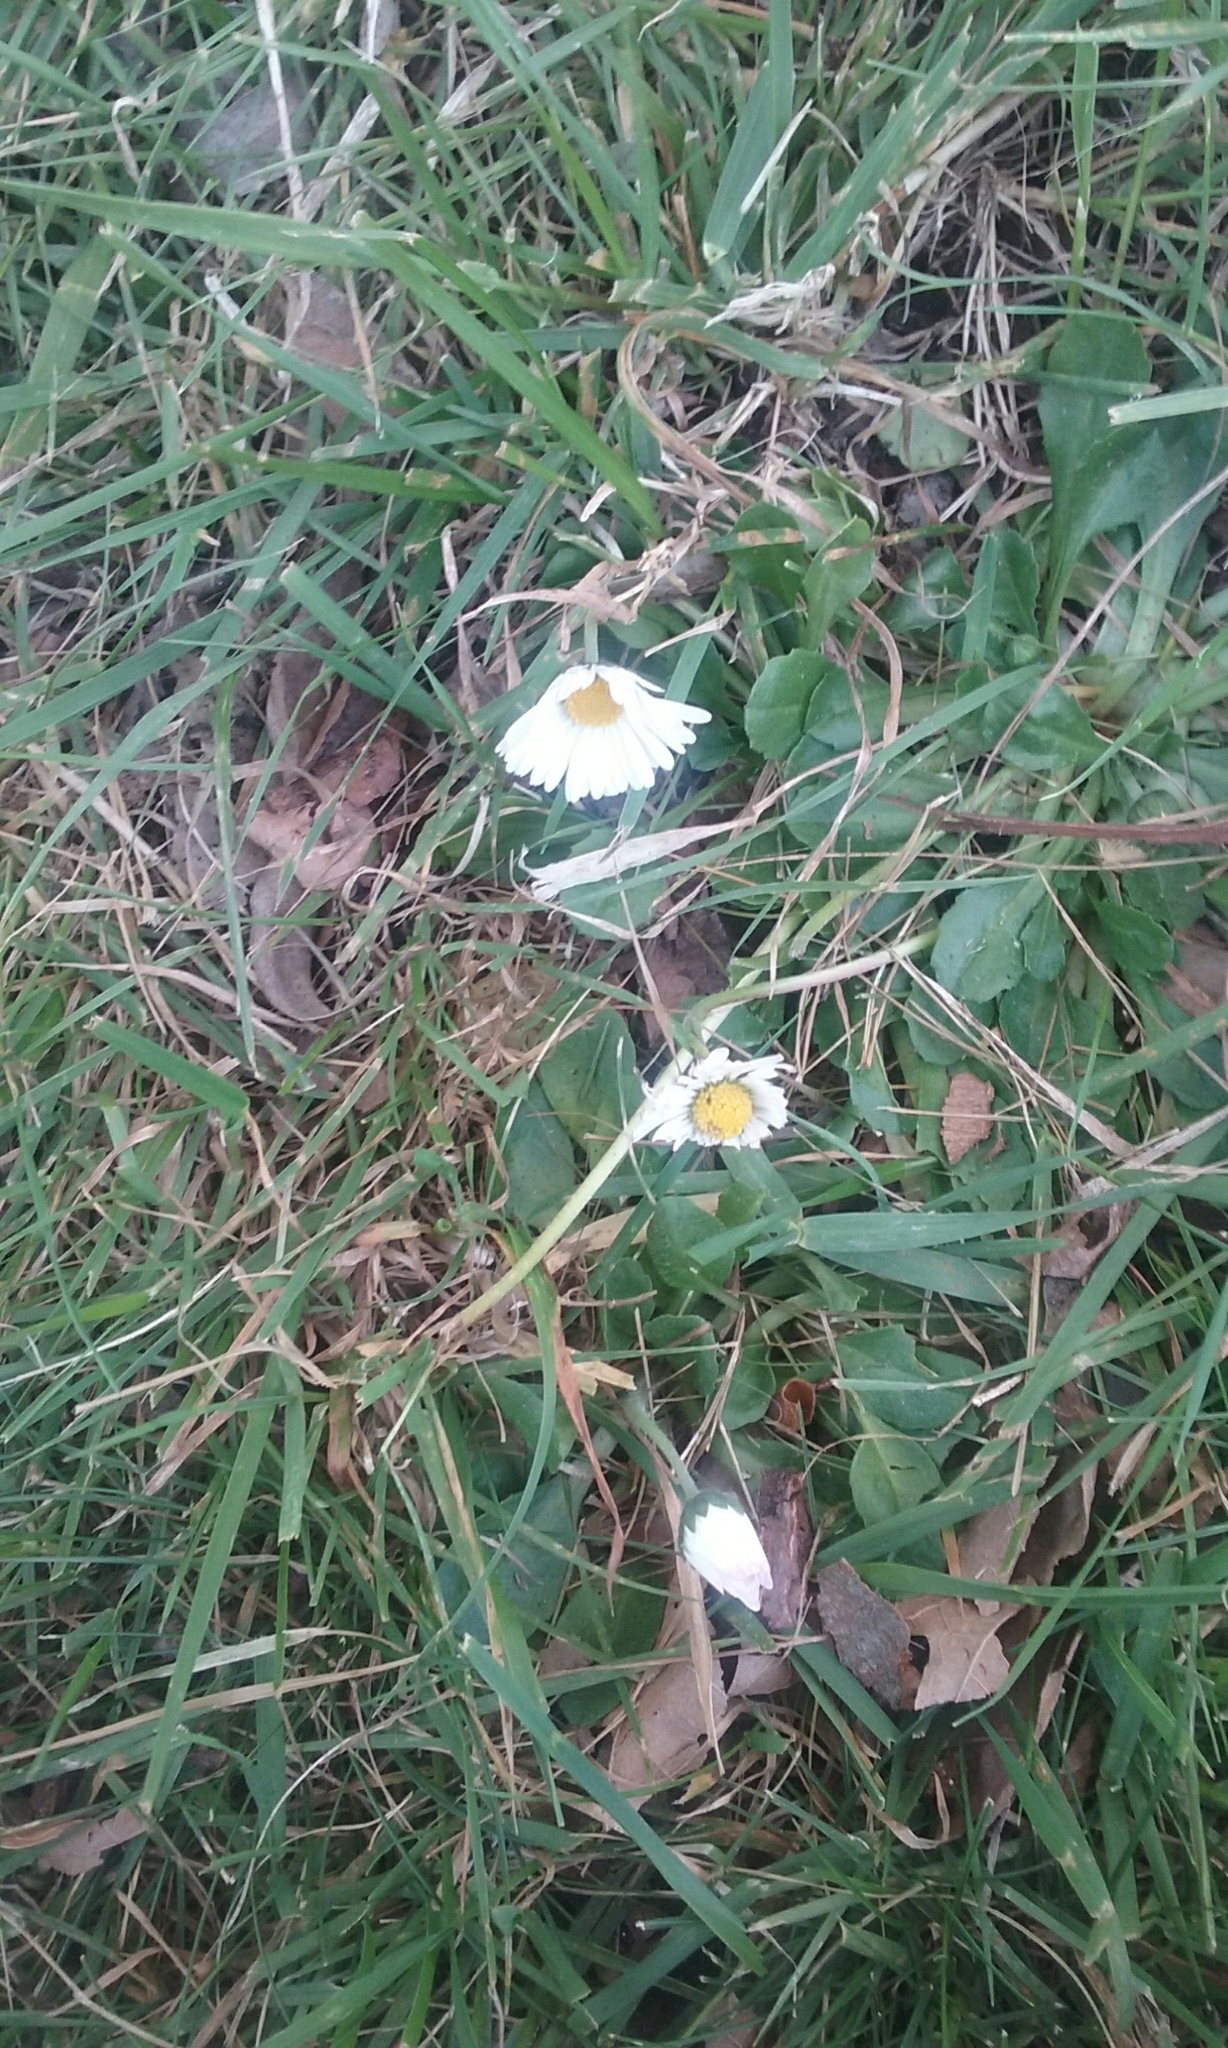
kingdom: Plantae
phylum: Tracheophyta
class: Magnoliopsida
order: Asterales
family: Asteraceae
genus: Bellis
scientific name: Bellis perennis
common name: Lawndaisy
